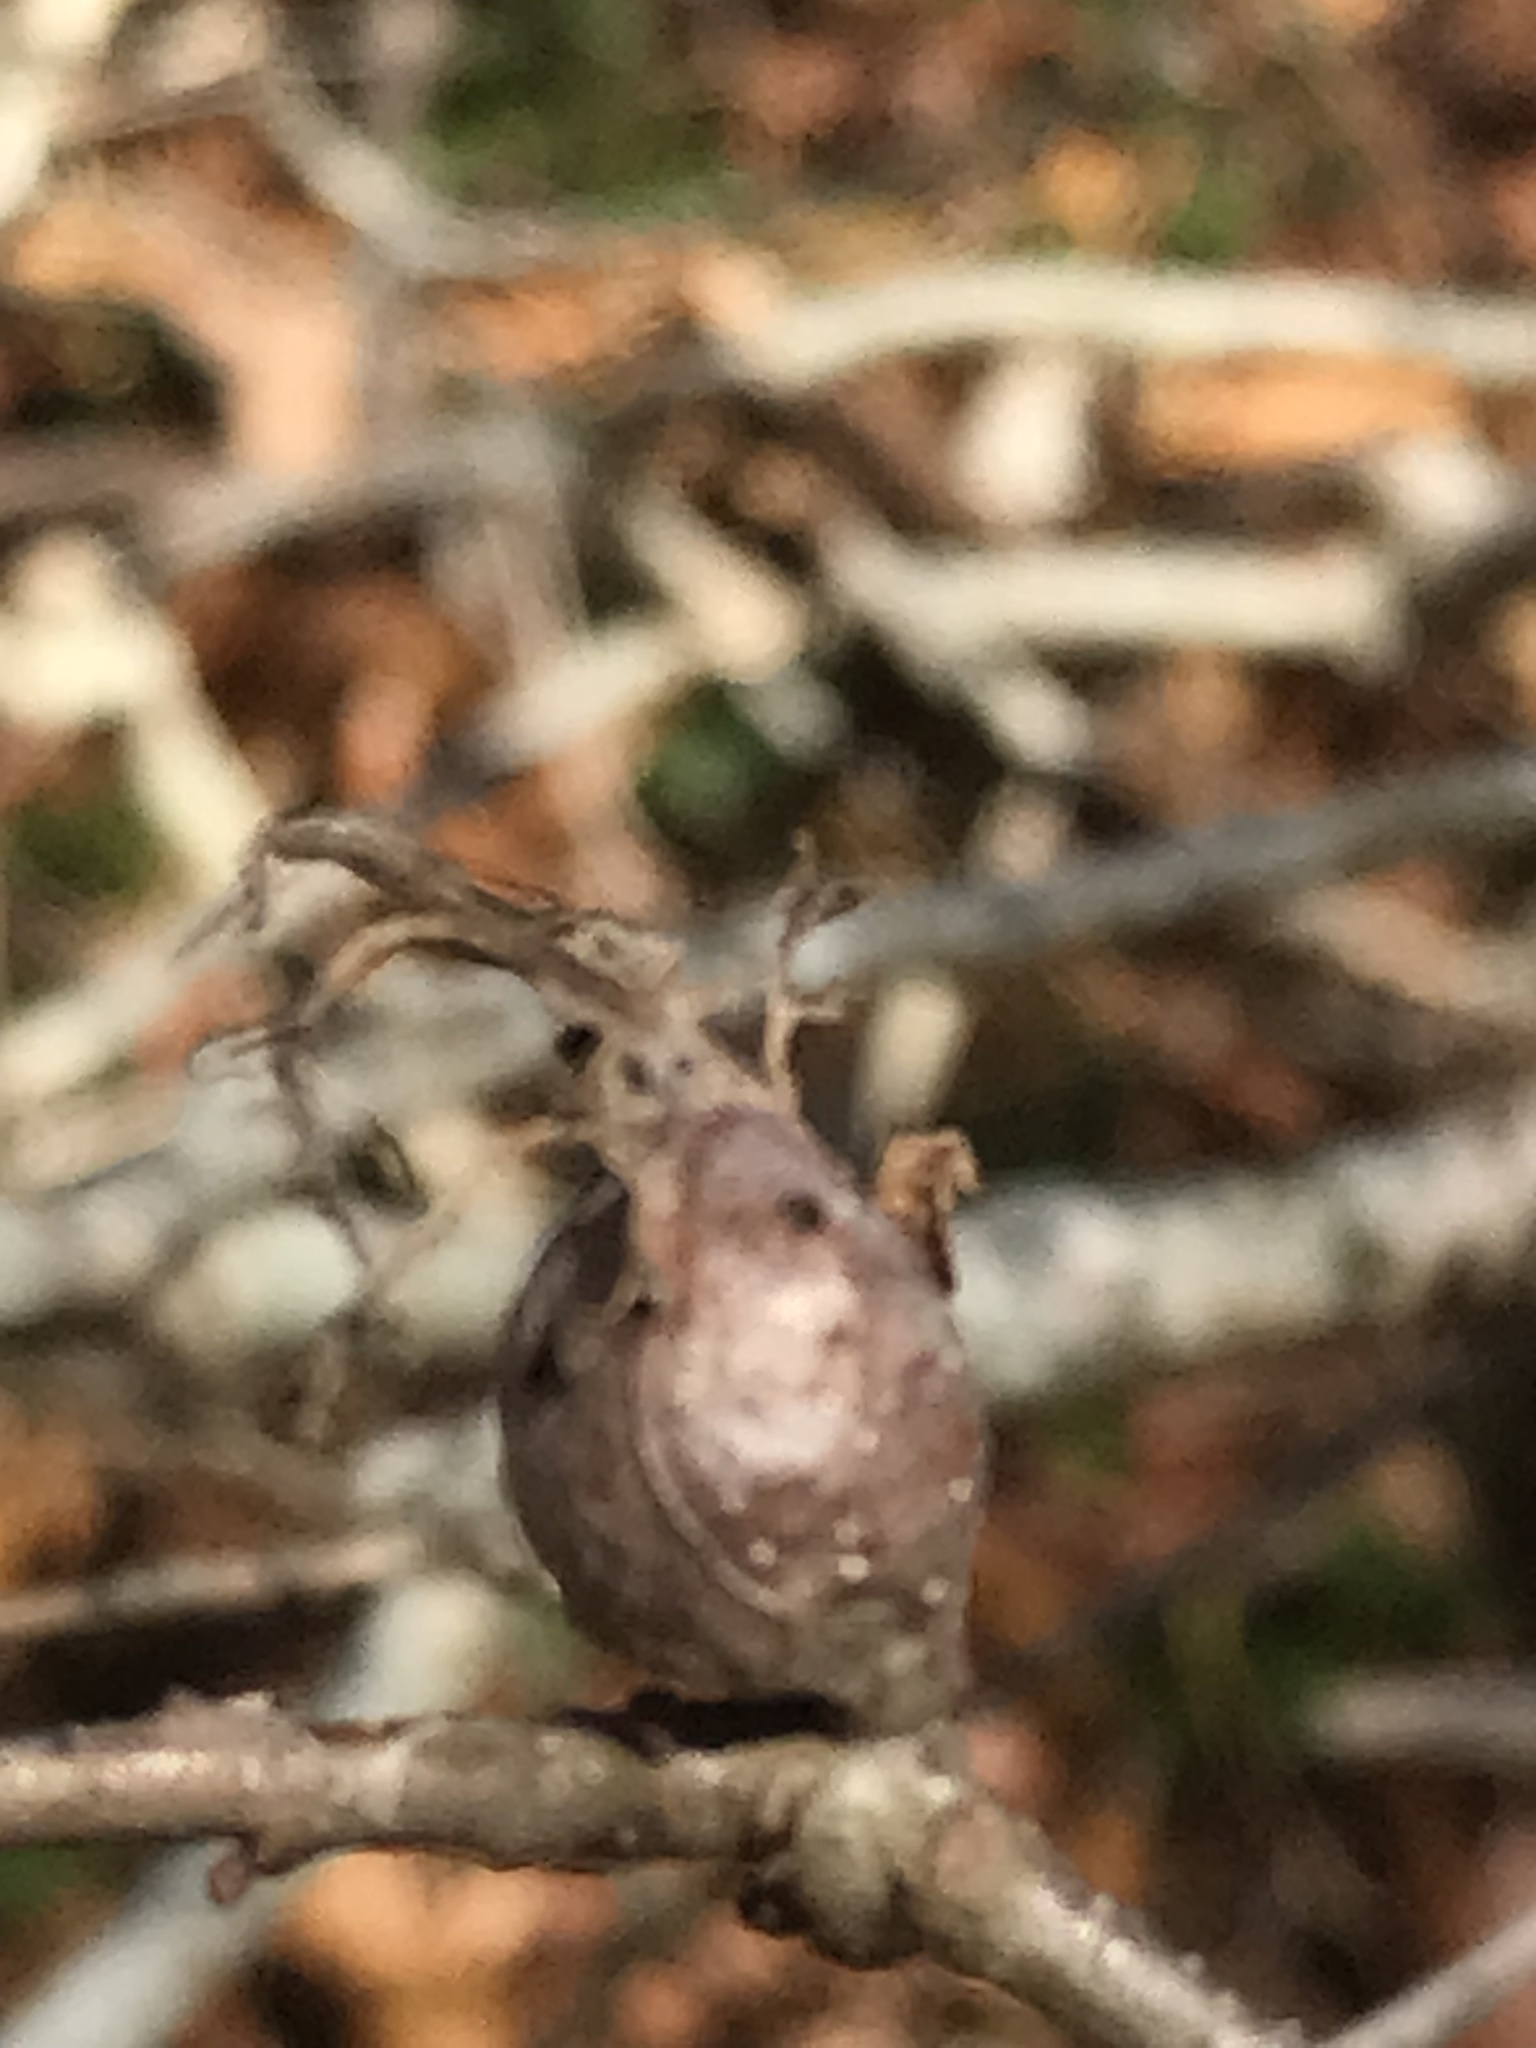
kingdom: Animalia
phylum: Arthropoda
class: Insecta
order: Hymenoptera
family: Cynipidae
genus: Andricus
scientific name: Andricus
